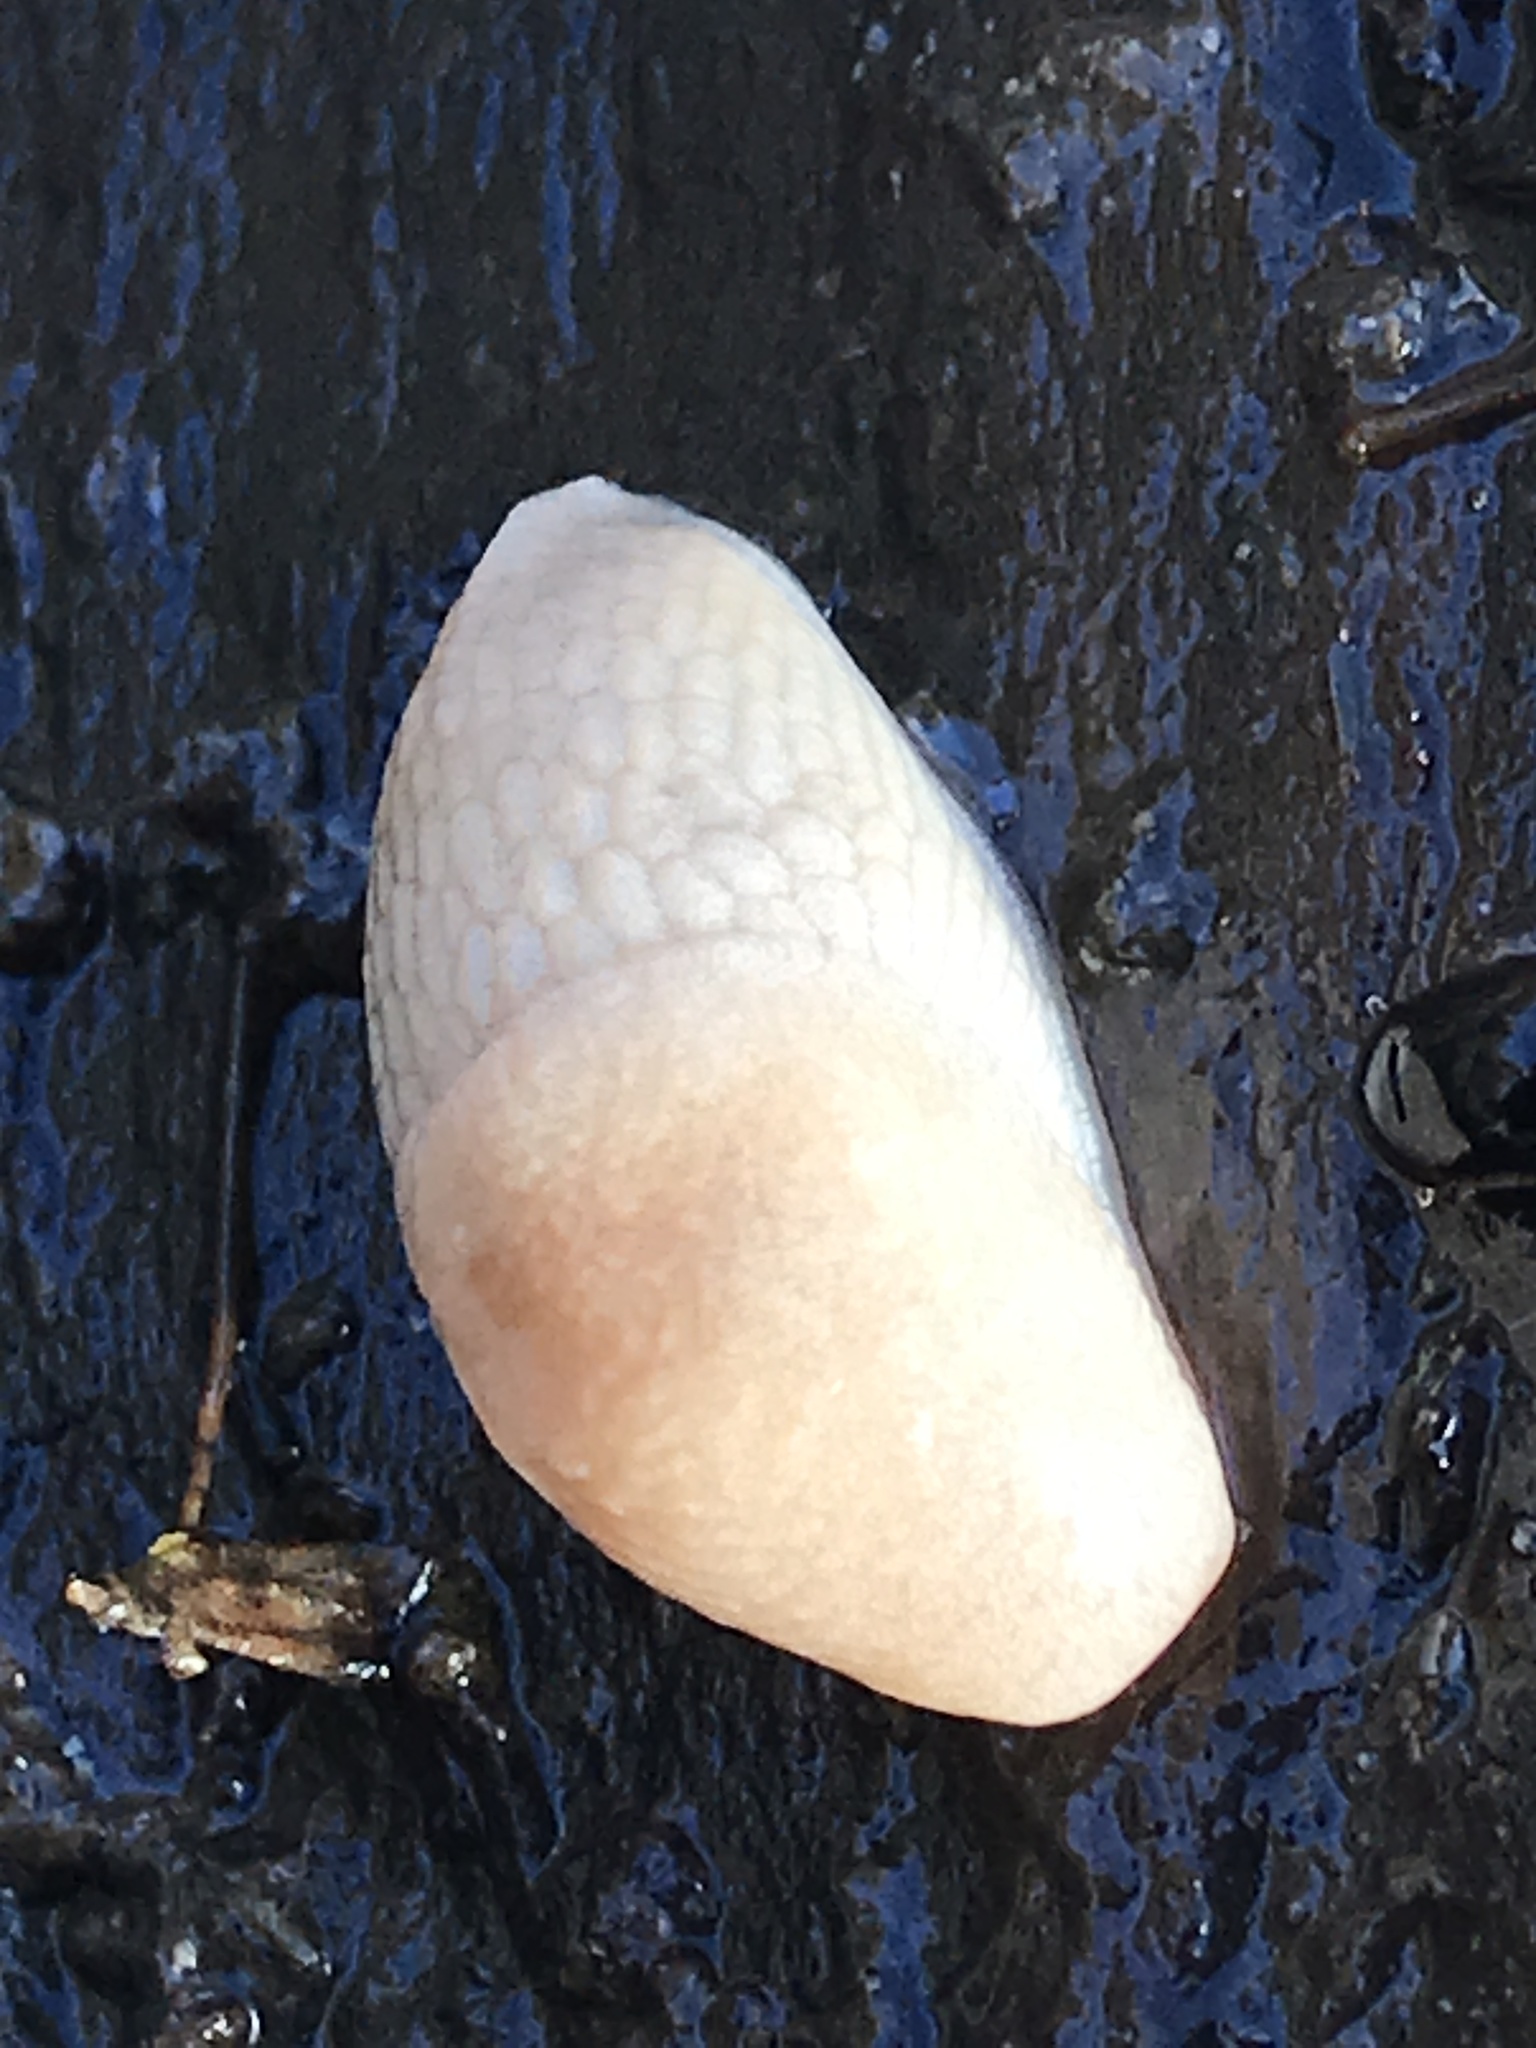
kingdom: Animalia
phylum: Mollusca
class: Gastropoda
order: Stylommatophora
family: Agriolimacidae
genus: Deroceras
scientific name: Deroceras reticulatum
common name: Gray field slug
